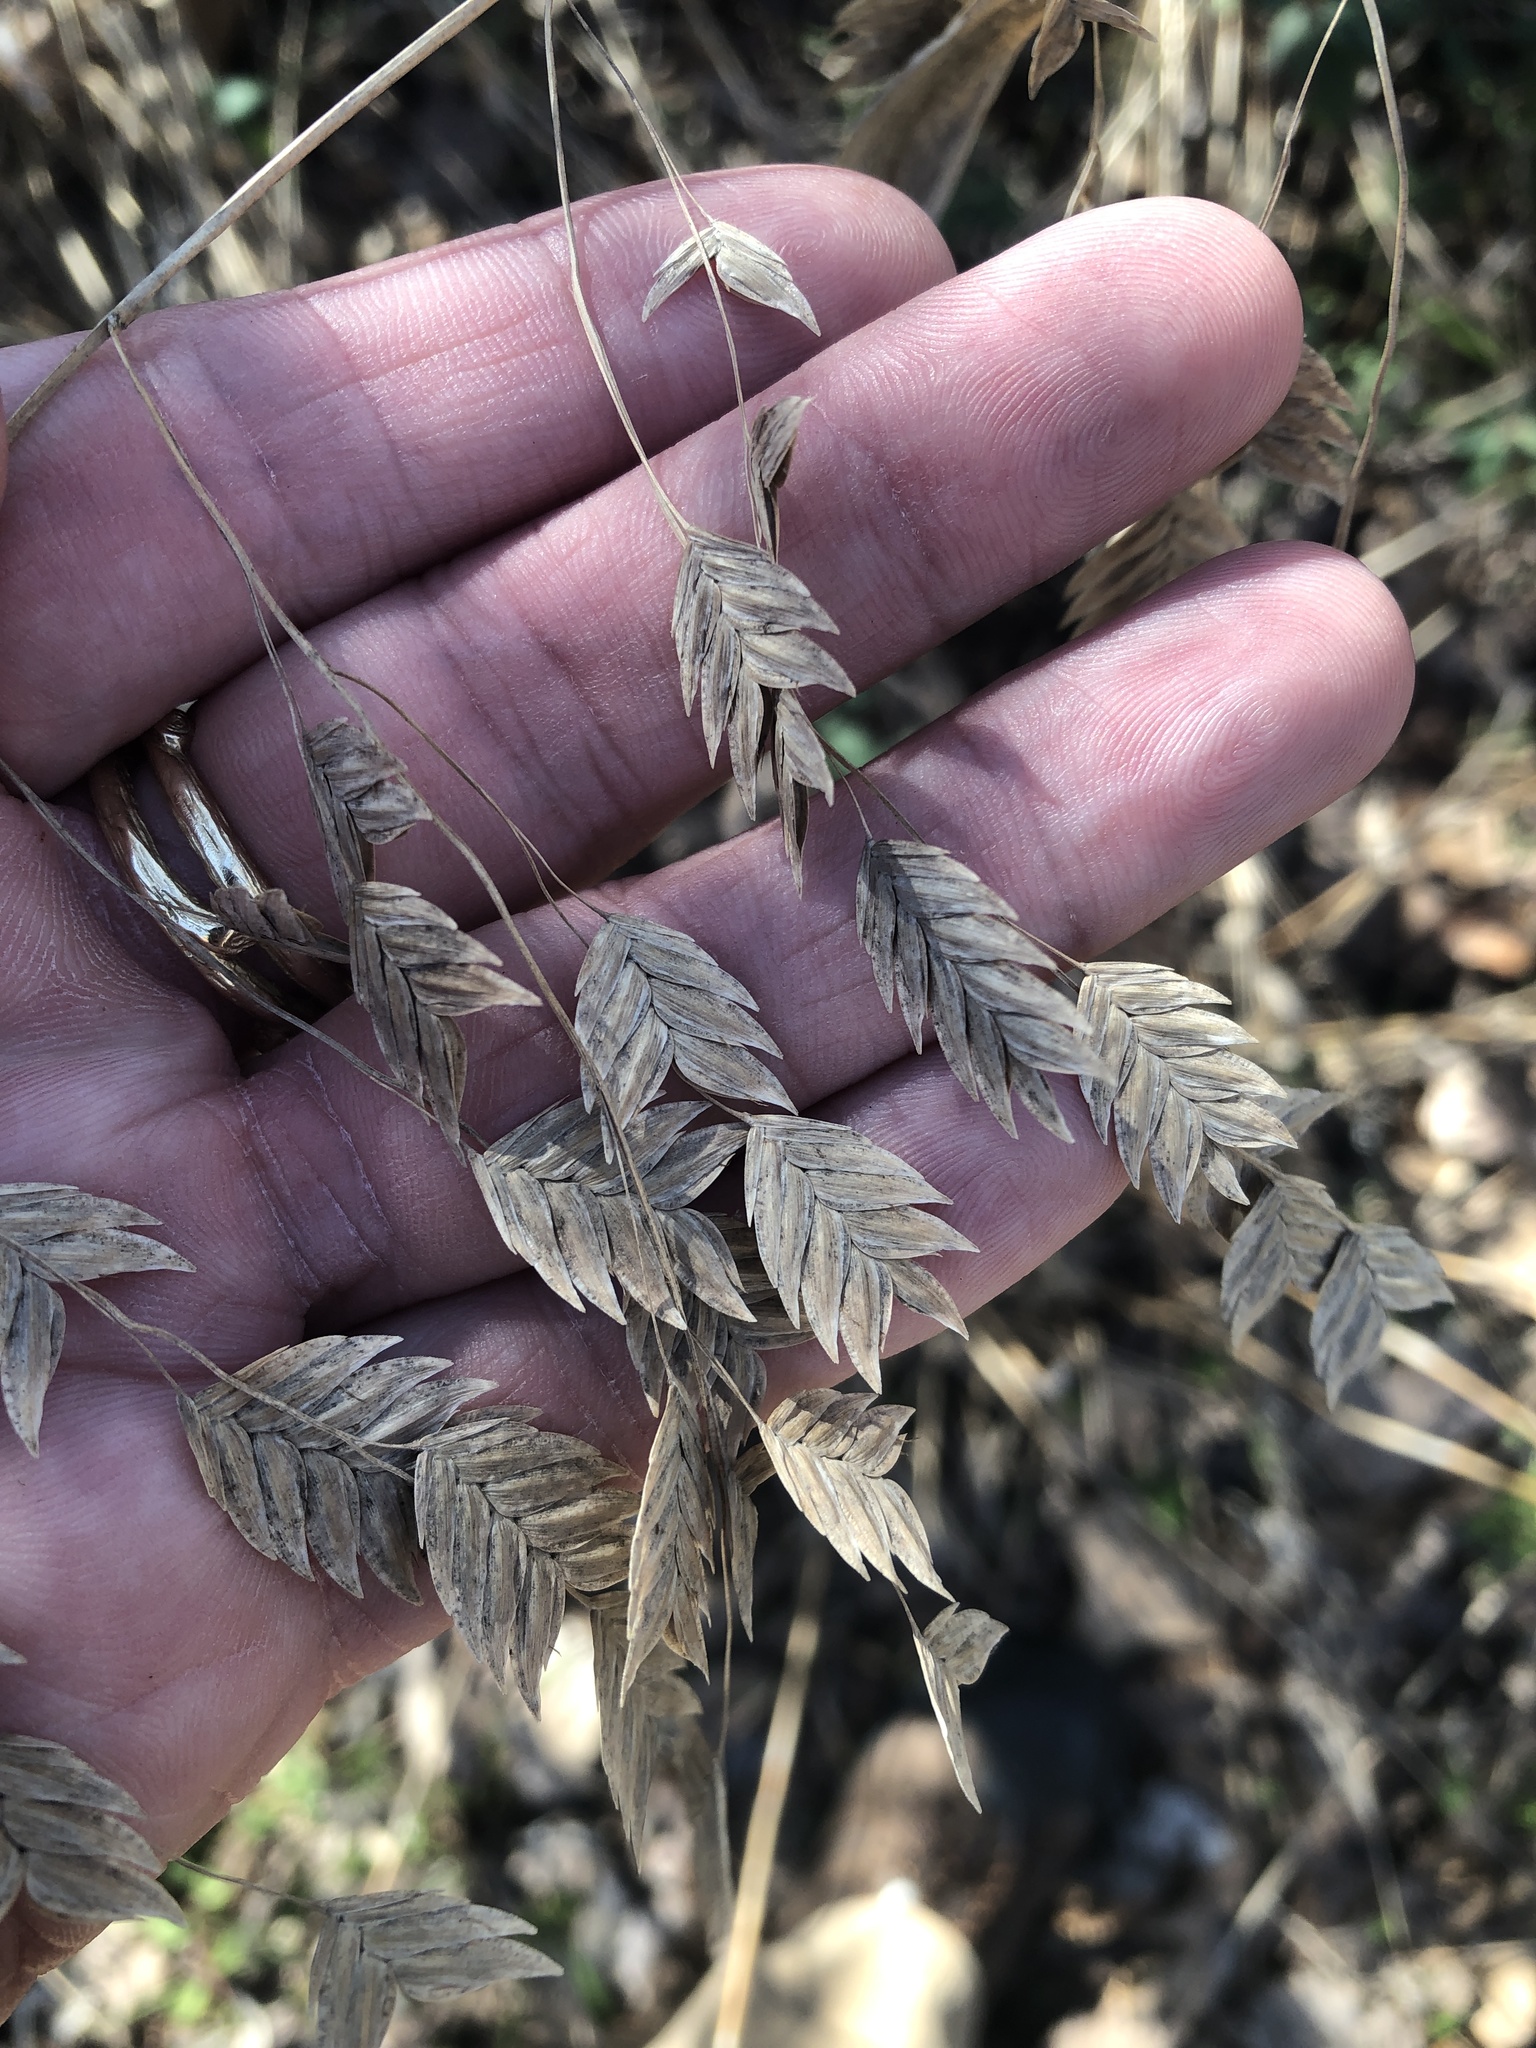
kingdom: Plantae
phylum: Tracheophyta
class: Liliopsida
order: Poales
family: Poaceae
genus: Chasmanthium
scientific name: Chasmanthium latifolium
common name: Broad-leaved chasmanthium
